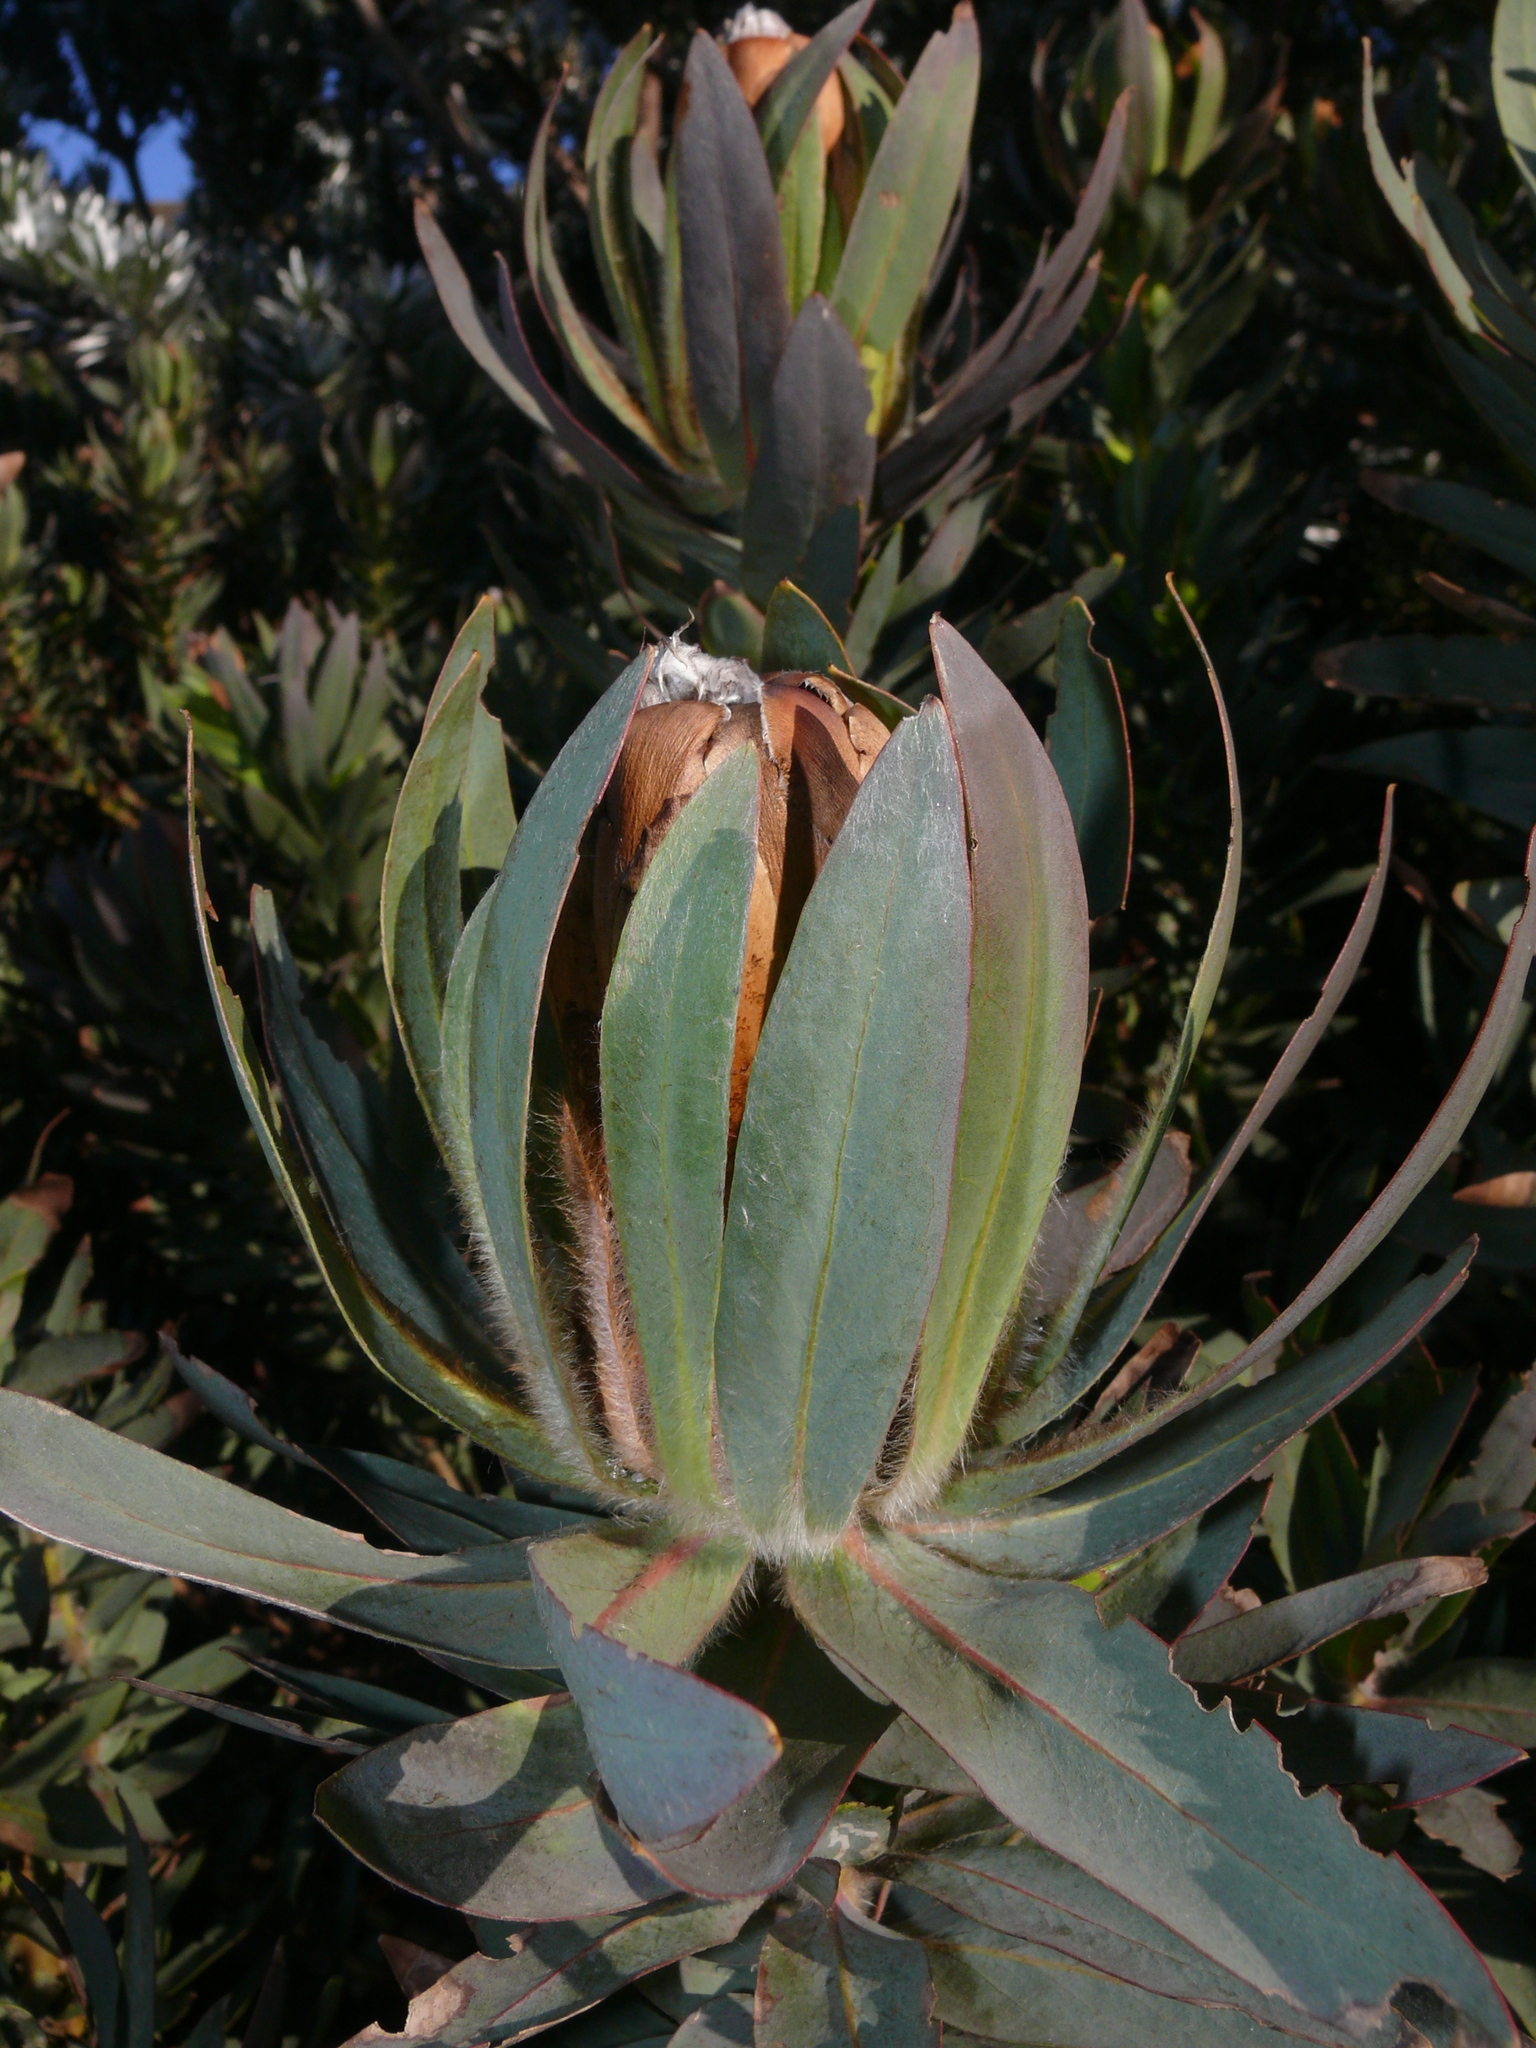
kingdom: Plantae
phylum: Tracheophyta
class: Magnoliopsida
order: Proteales
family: Proteaceae
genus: Protea
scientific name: Protea coronata
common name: Green sugarbush
